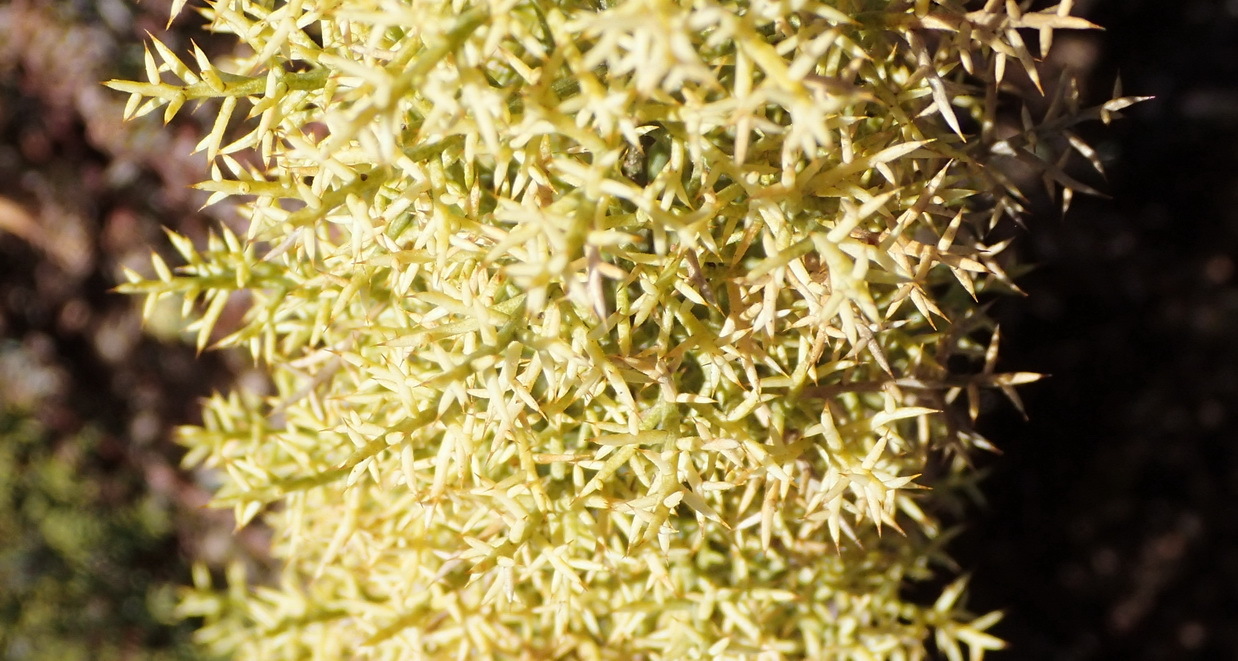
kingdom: Plantae
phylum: Tracheophyta
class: Liliopsida
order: Asparagales
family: Asparagaceae
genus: Asparagus
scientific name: Asparagus oliveri
